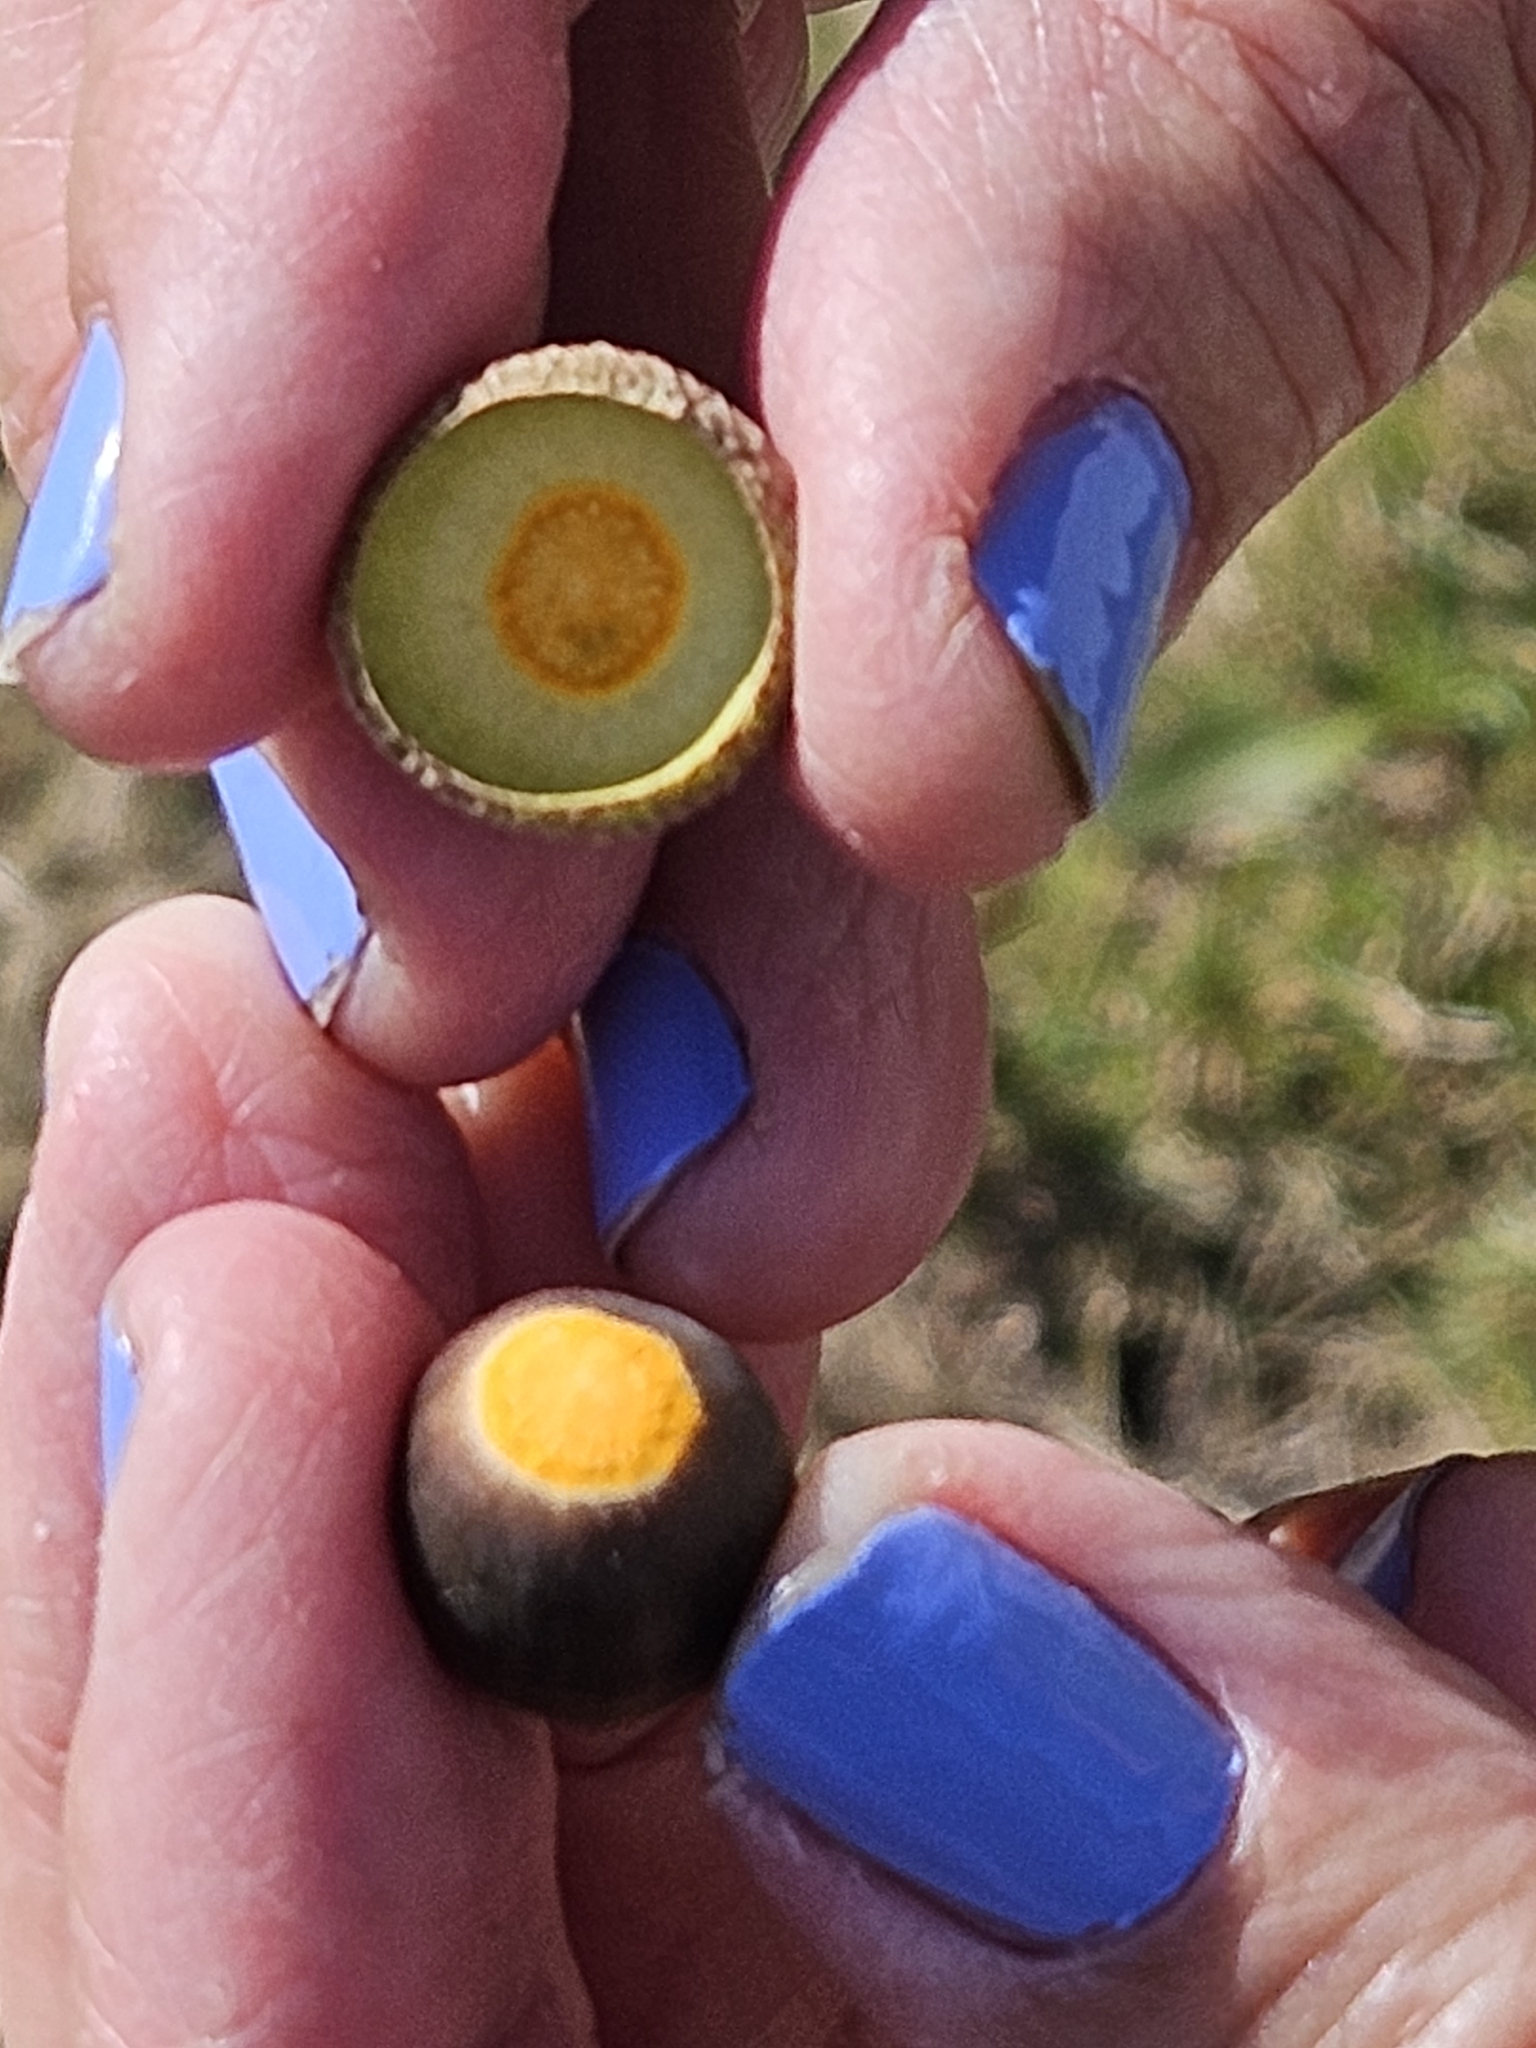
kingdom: Plantae
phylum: Tracheophyta
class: Magnoliopsida
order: Fagales
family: Fagaceae
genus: Quercus
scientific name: Quercus stellata
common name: Post oak
